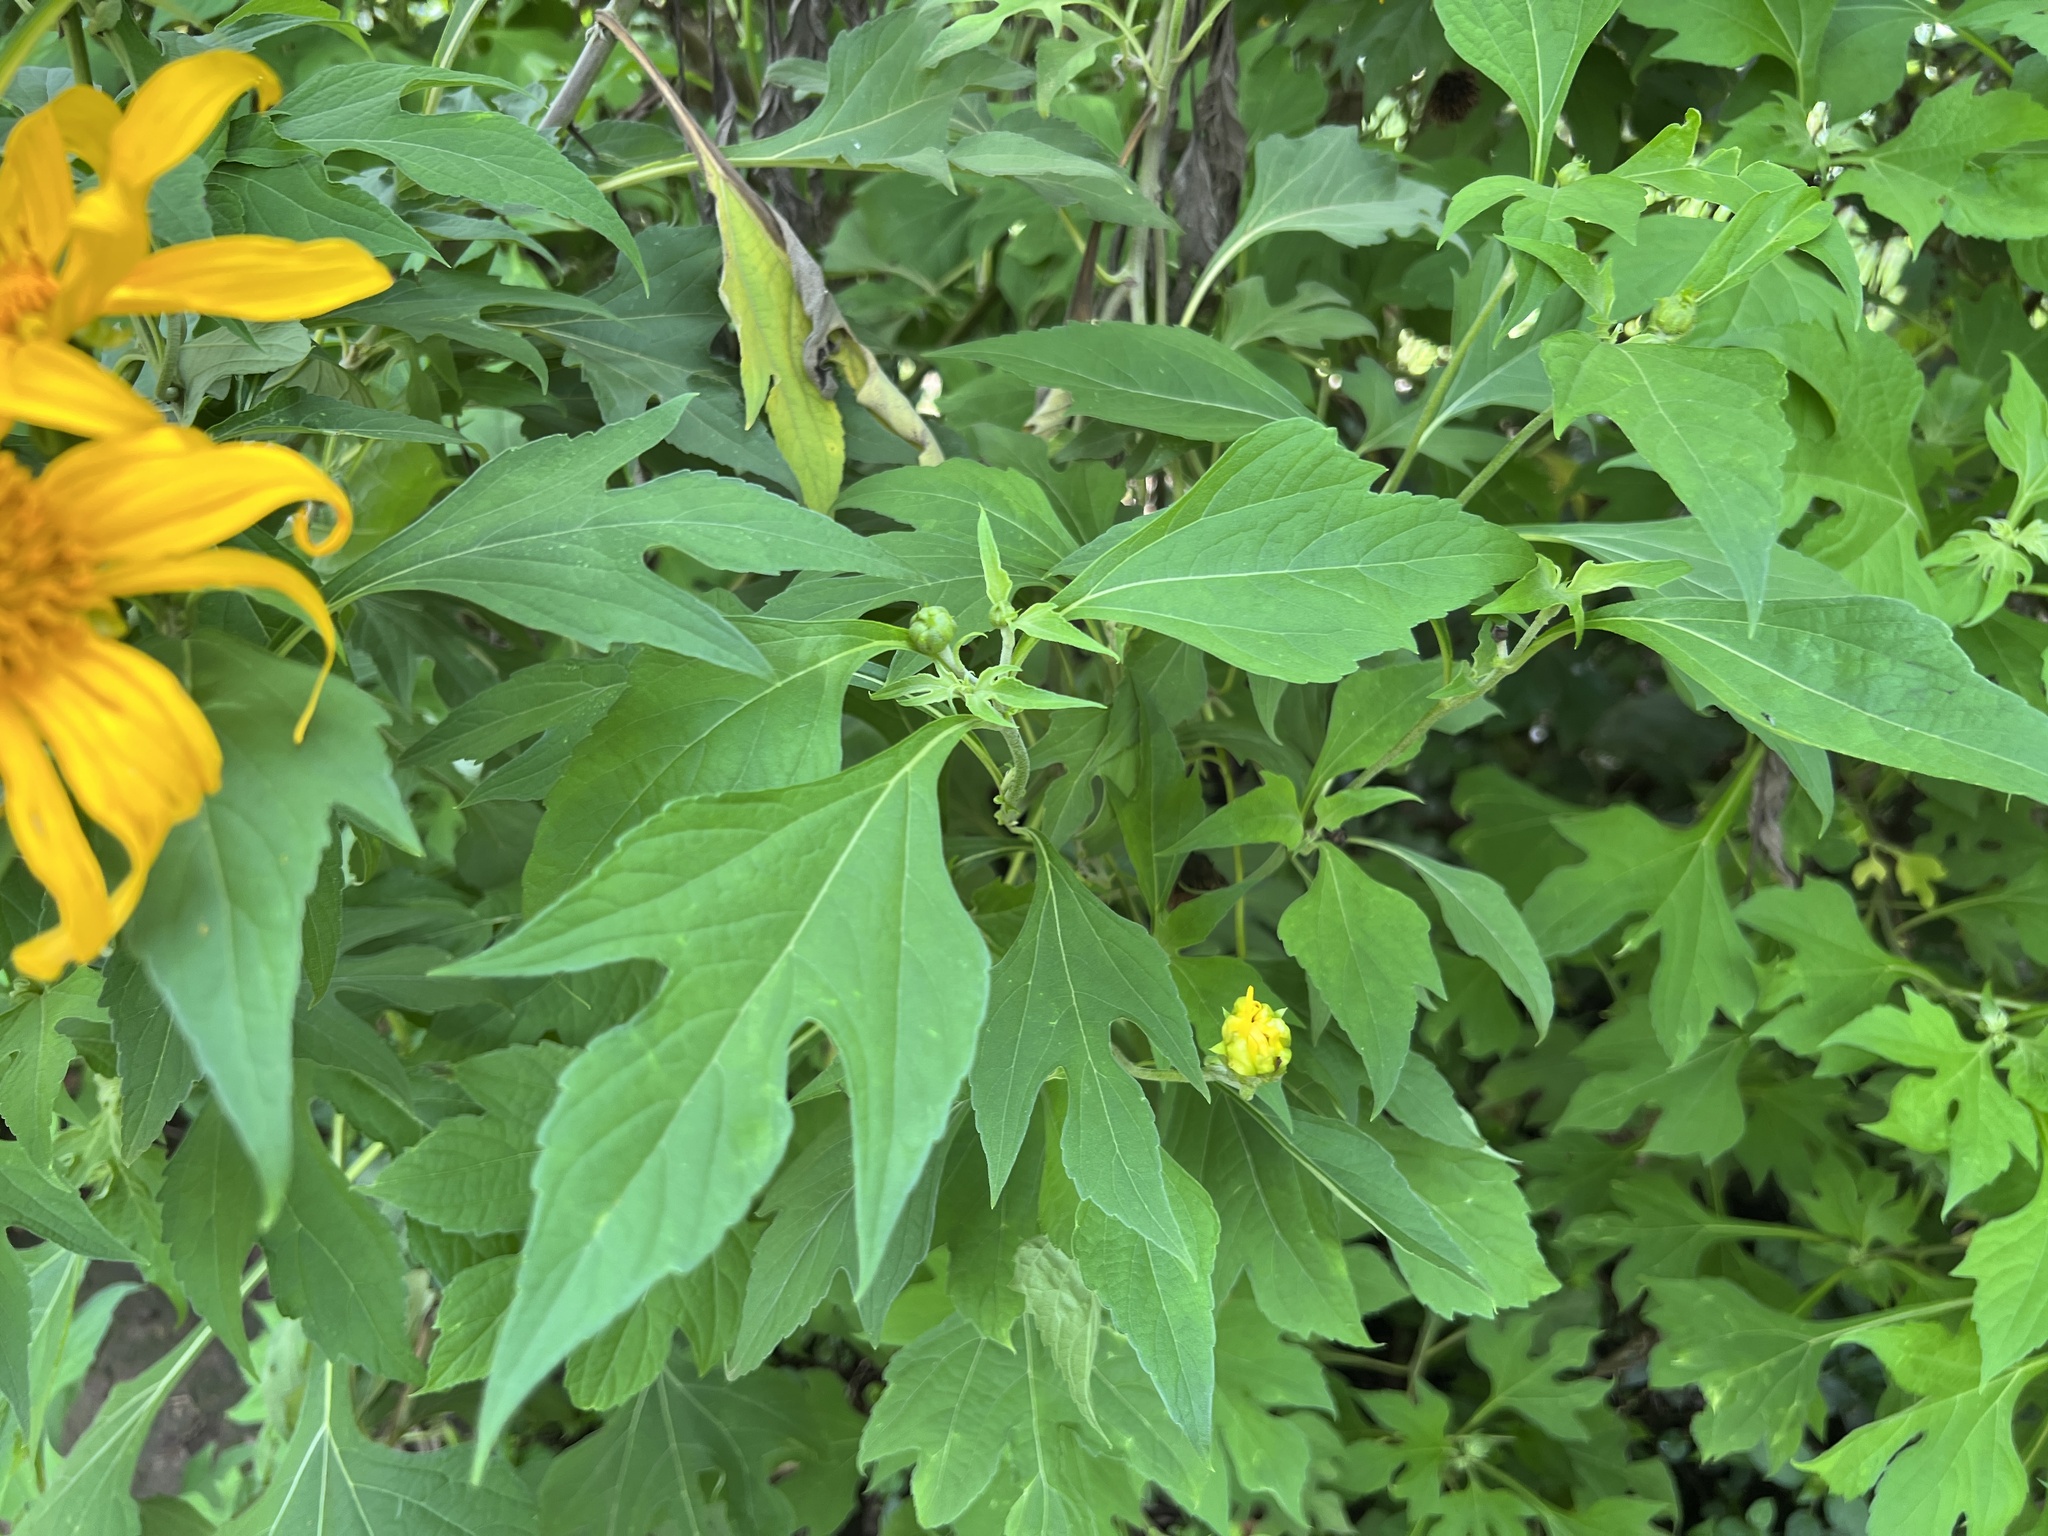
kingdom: Plantae
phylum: Tracheophyta
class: Magnoliopsida
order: Asterales
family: Asteraceae
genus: Tithonia
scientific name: Tithonia diversifolia
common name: Tree marigold
